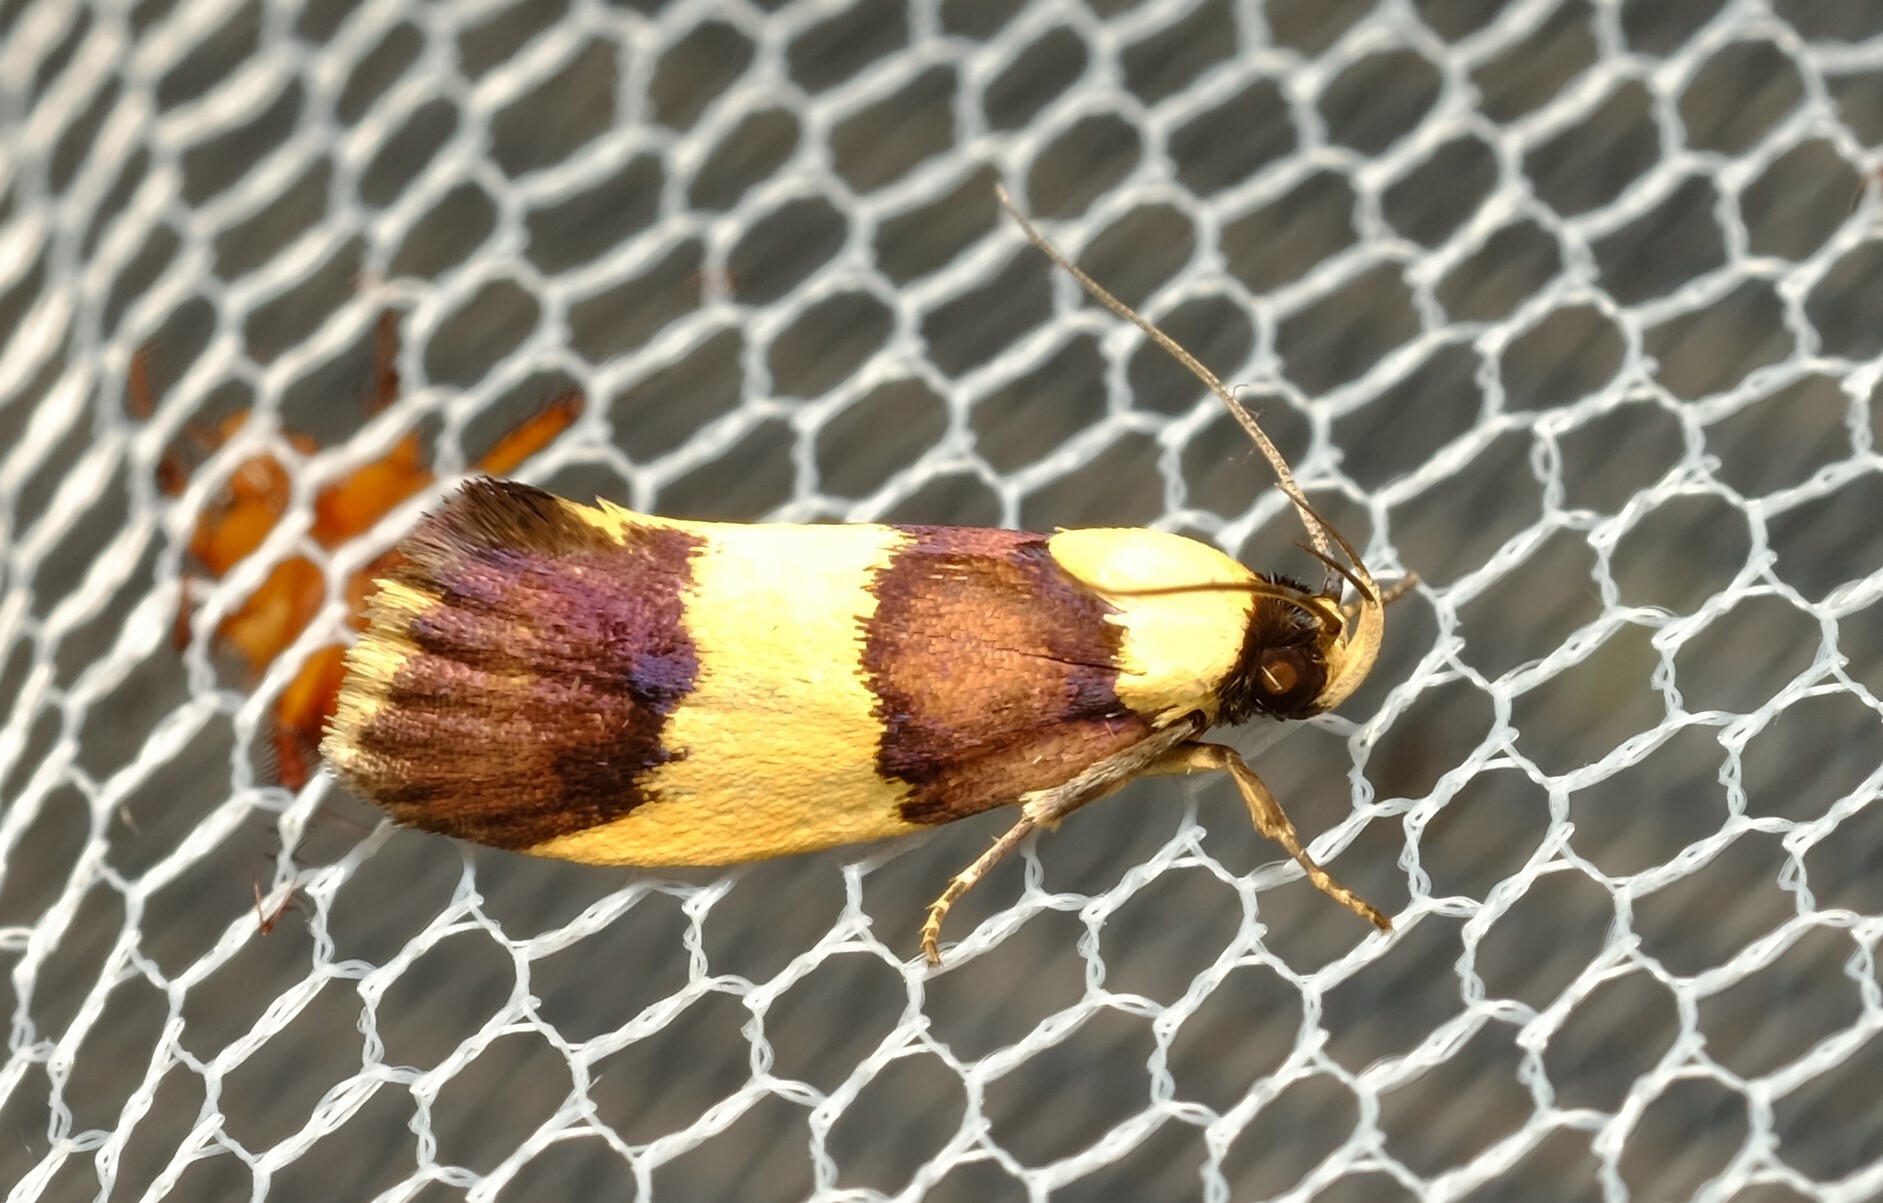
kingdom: Animalia
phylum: Arthropoda
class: Insecta
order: Lepidoptera
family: Xyloryctidae
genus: Telecrates
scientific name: Telecrates laetiorella
